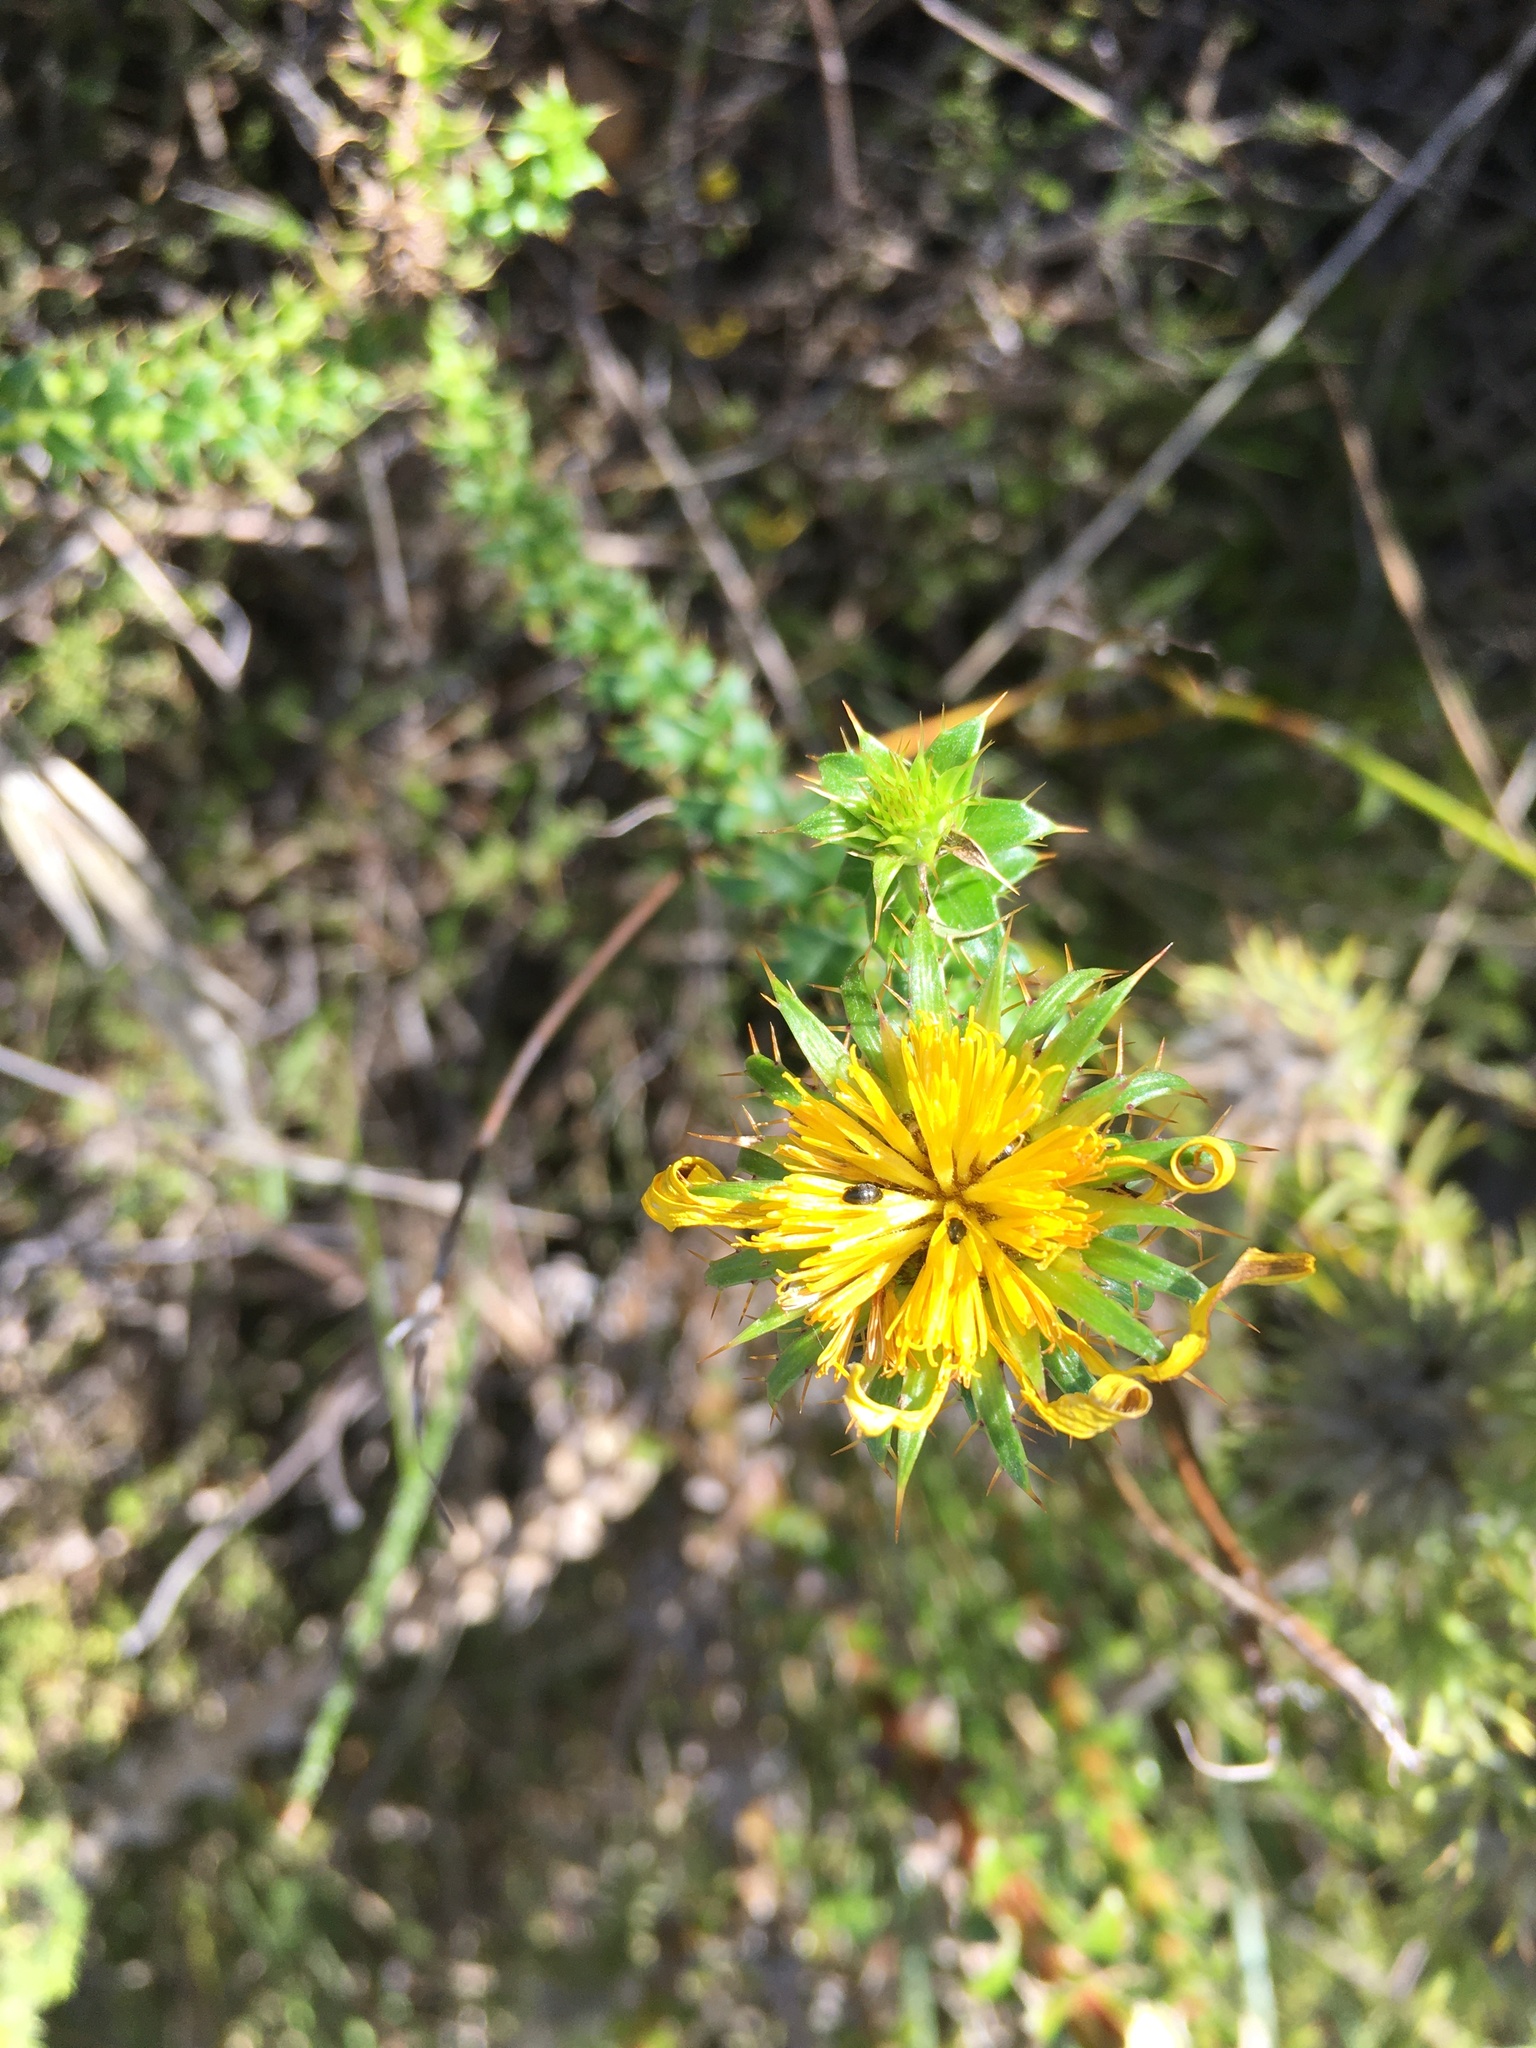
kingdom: Plantae
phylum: Tracheophyta
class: Magnoliopsida
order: Asterales
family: Asteraceae
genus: Cullumia
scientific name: Cullumia setosa
